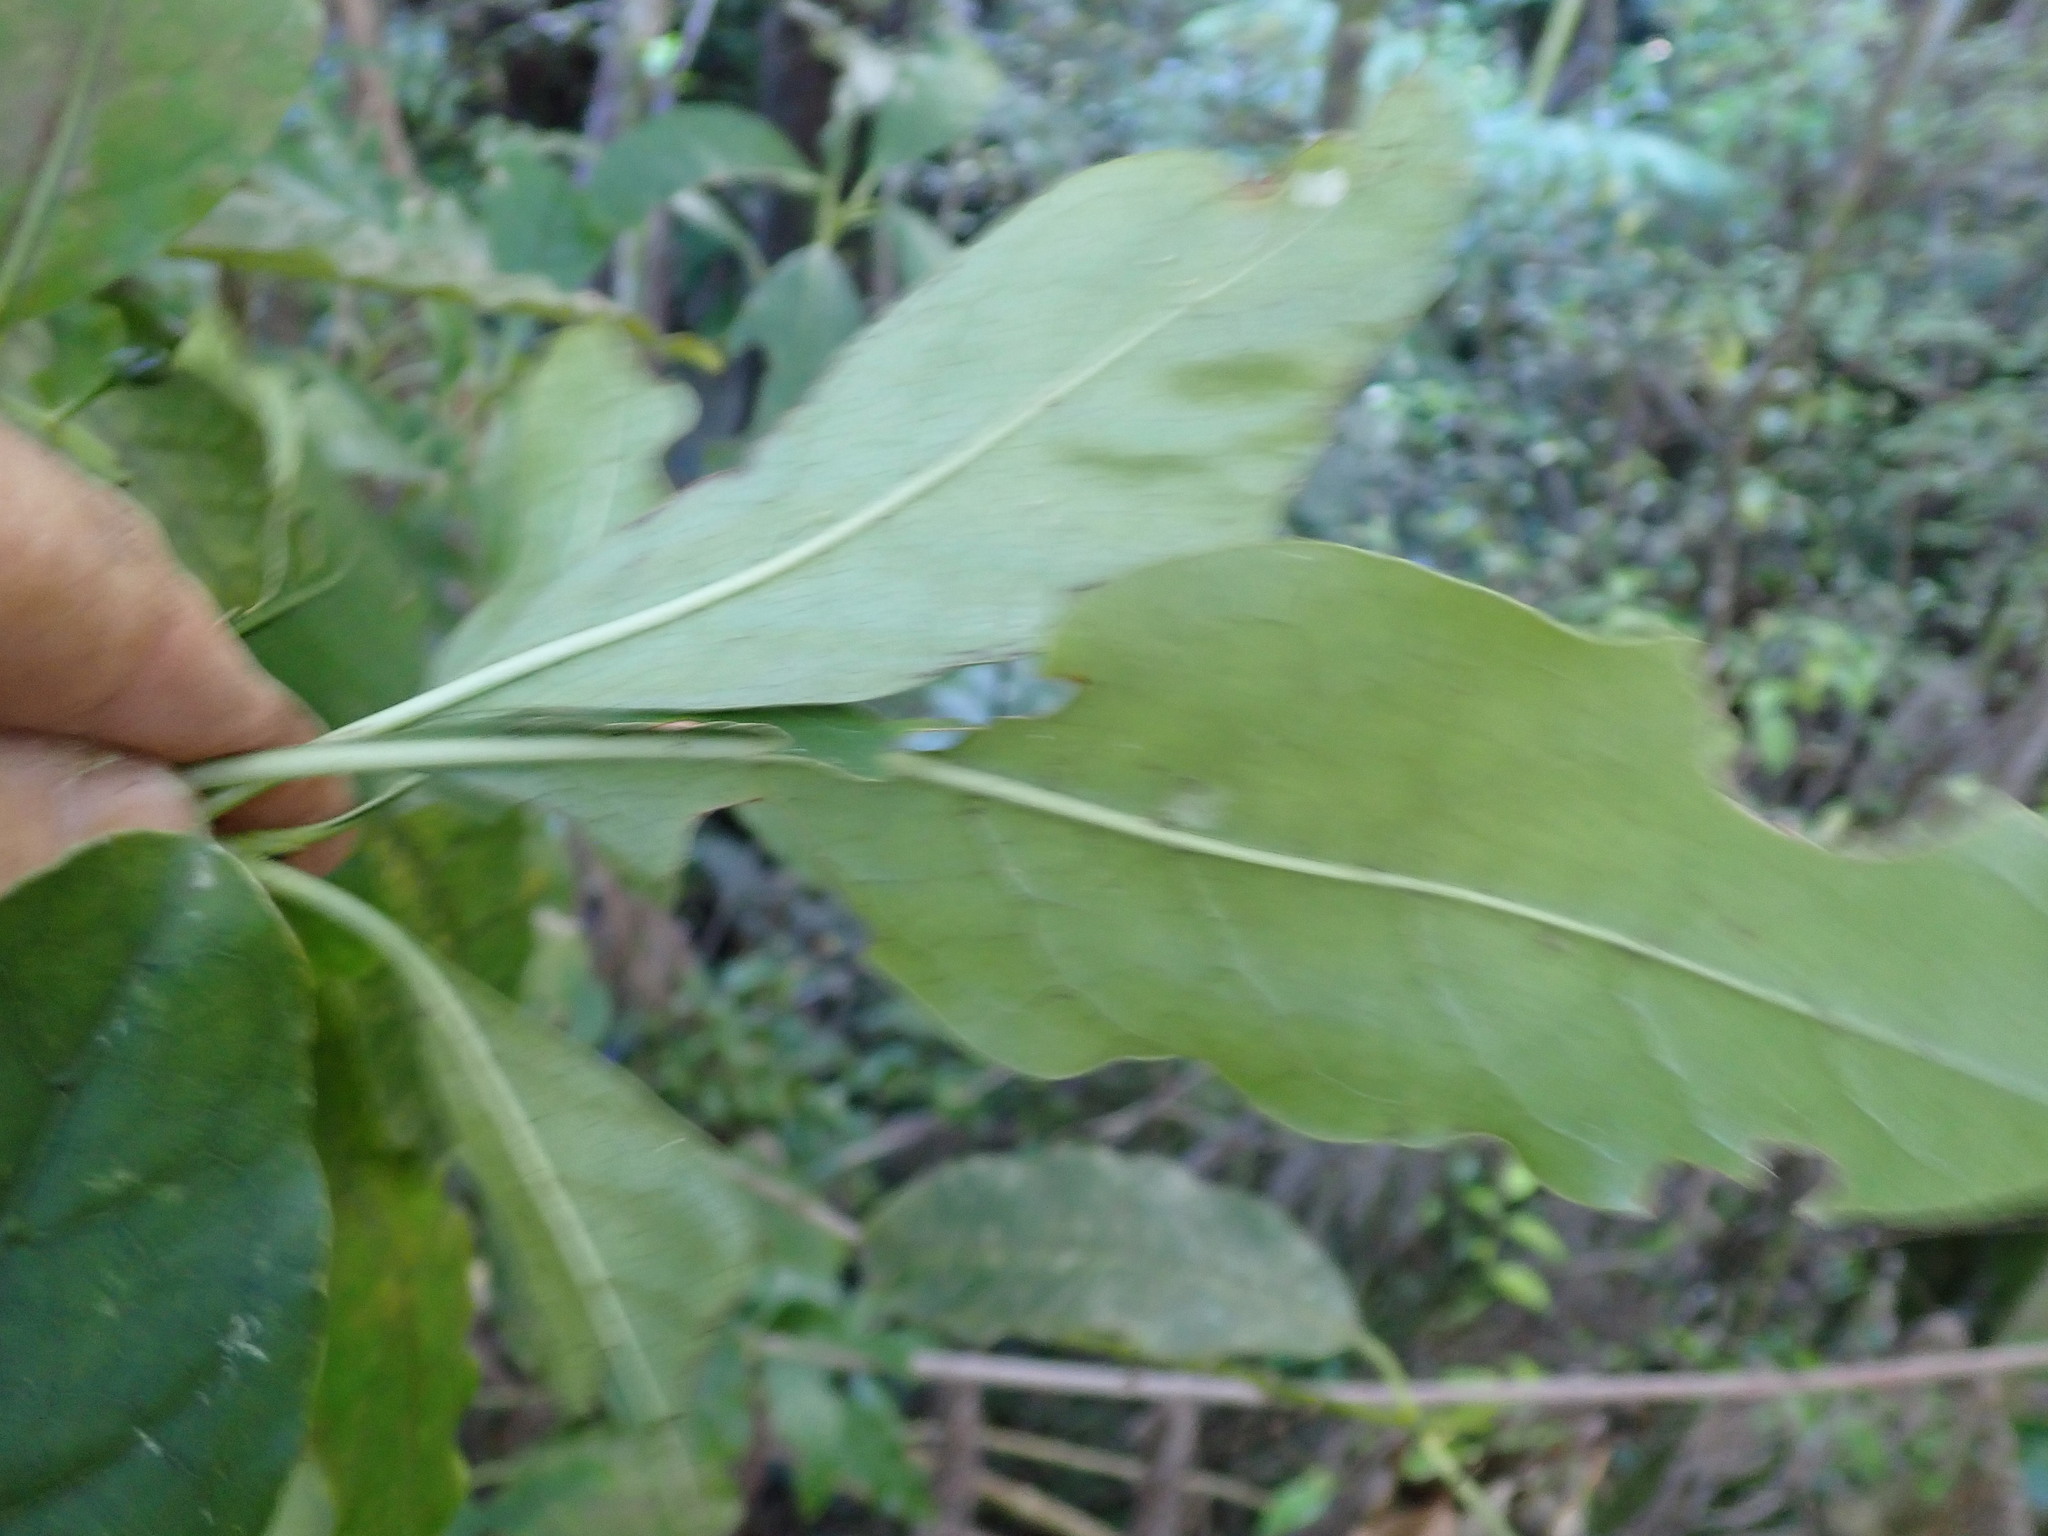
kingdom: Plantae
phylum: Tracheophyta
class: Magnoliopsida
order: Gentianales
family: Rubiaceae
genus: Coprosma
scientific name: Coprosma autumnalis
